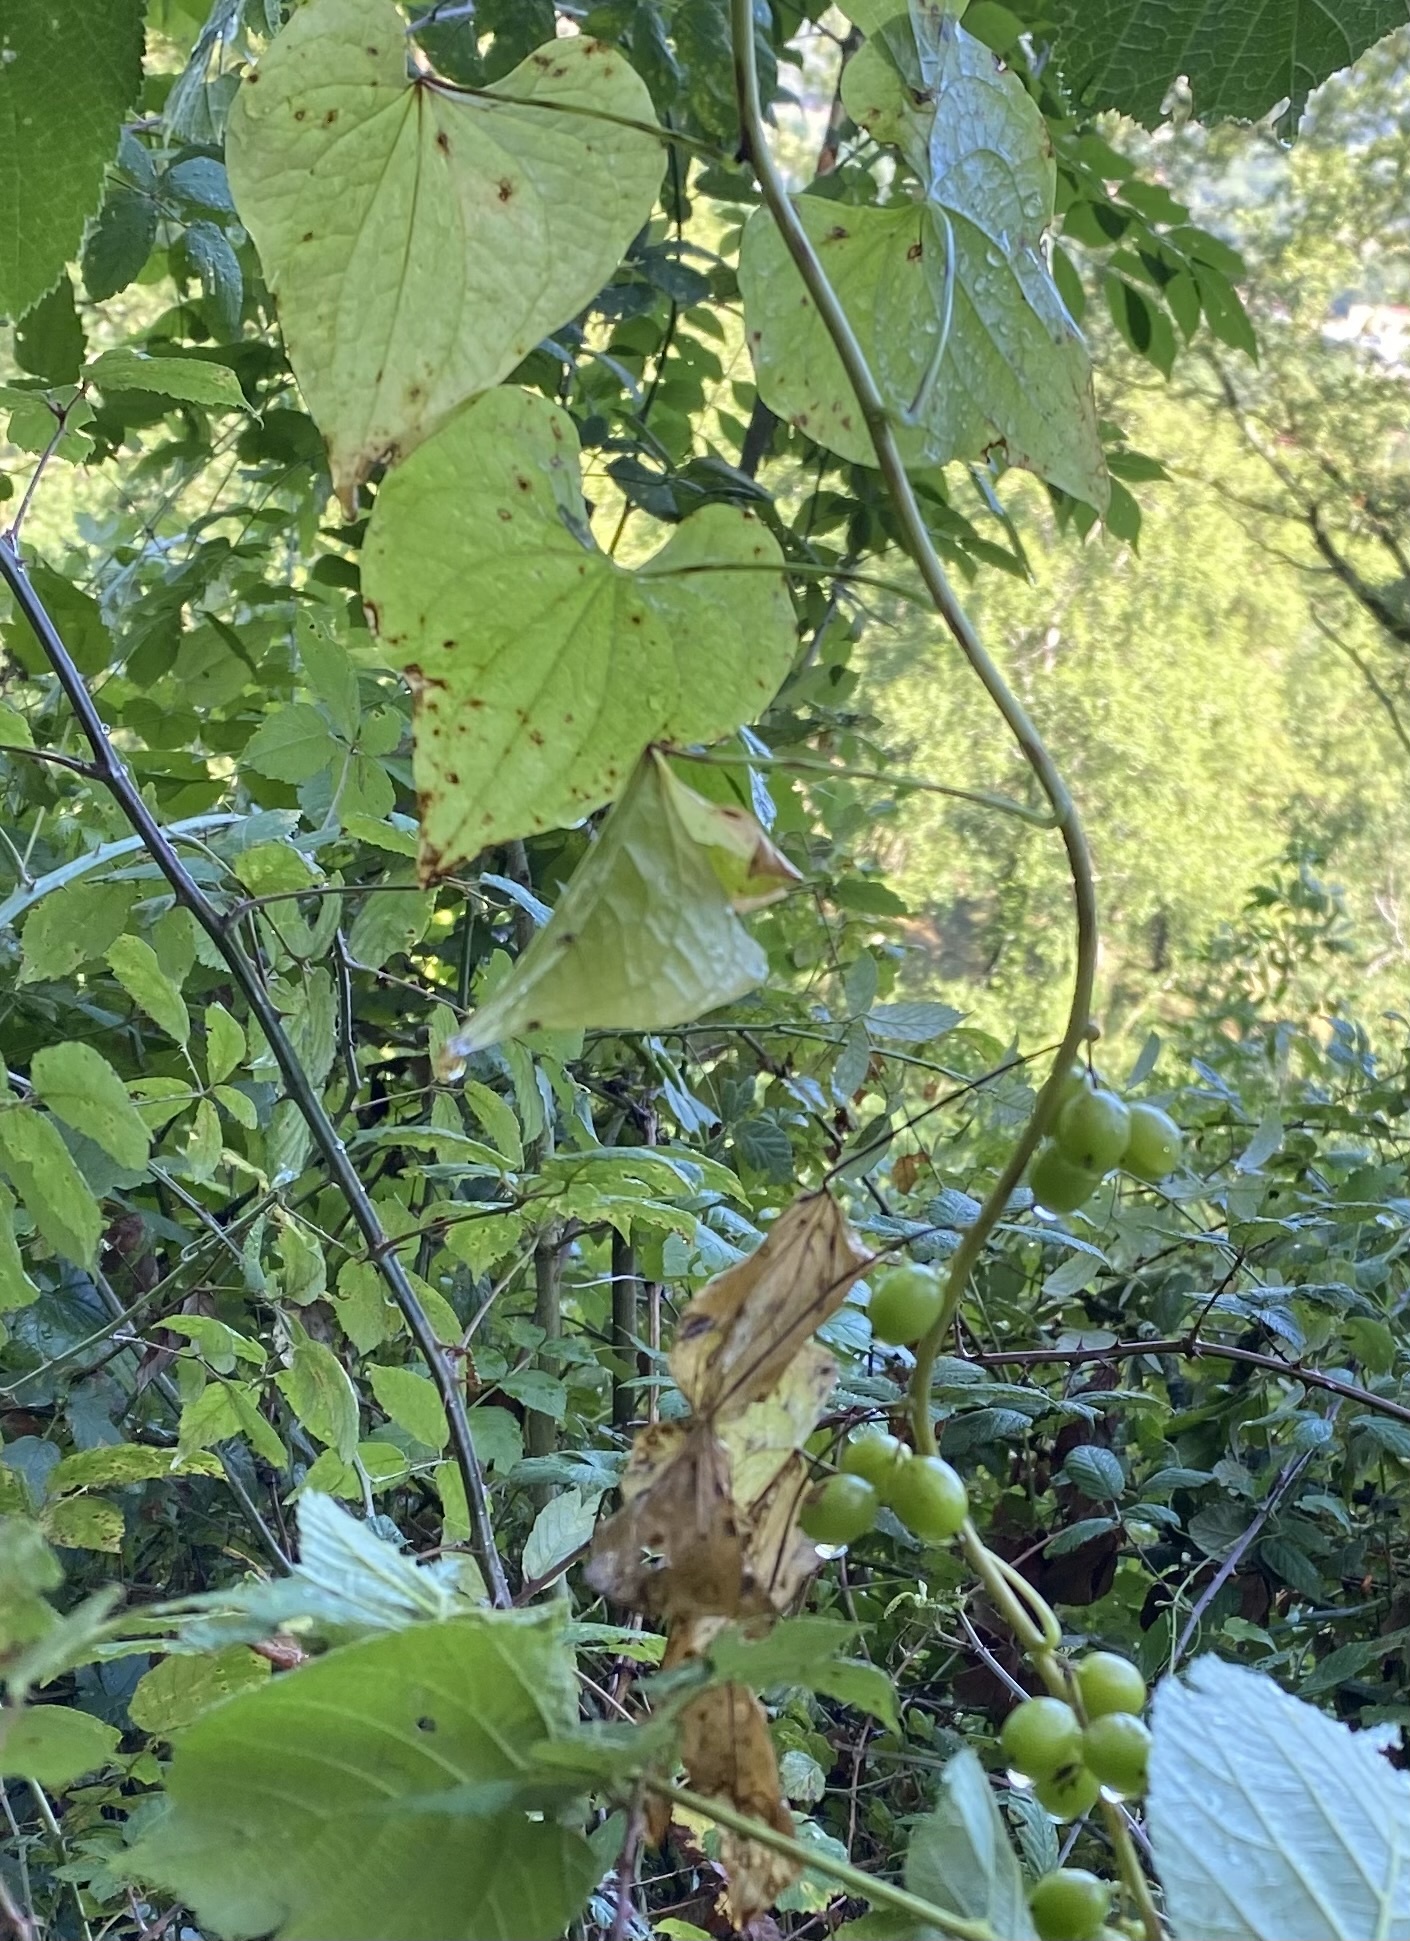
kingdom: Plantae
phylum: Tracheophyta
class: Liliopsida
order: Dioscoreales
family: Dioscoreaceae
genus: Dioscorea
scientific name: Dioscorea communis
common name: Black-bindweed
